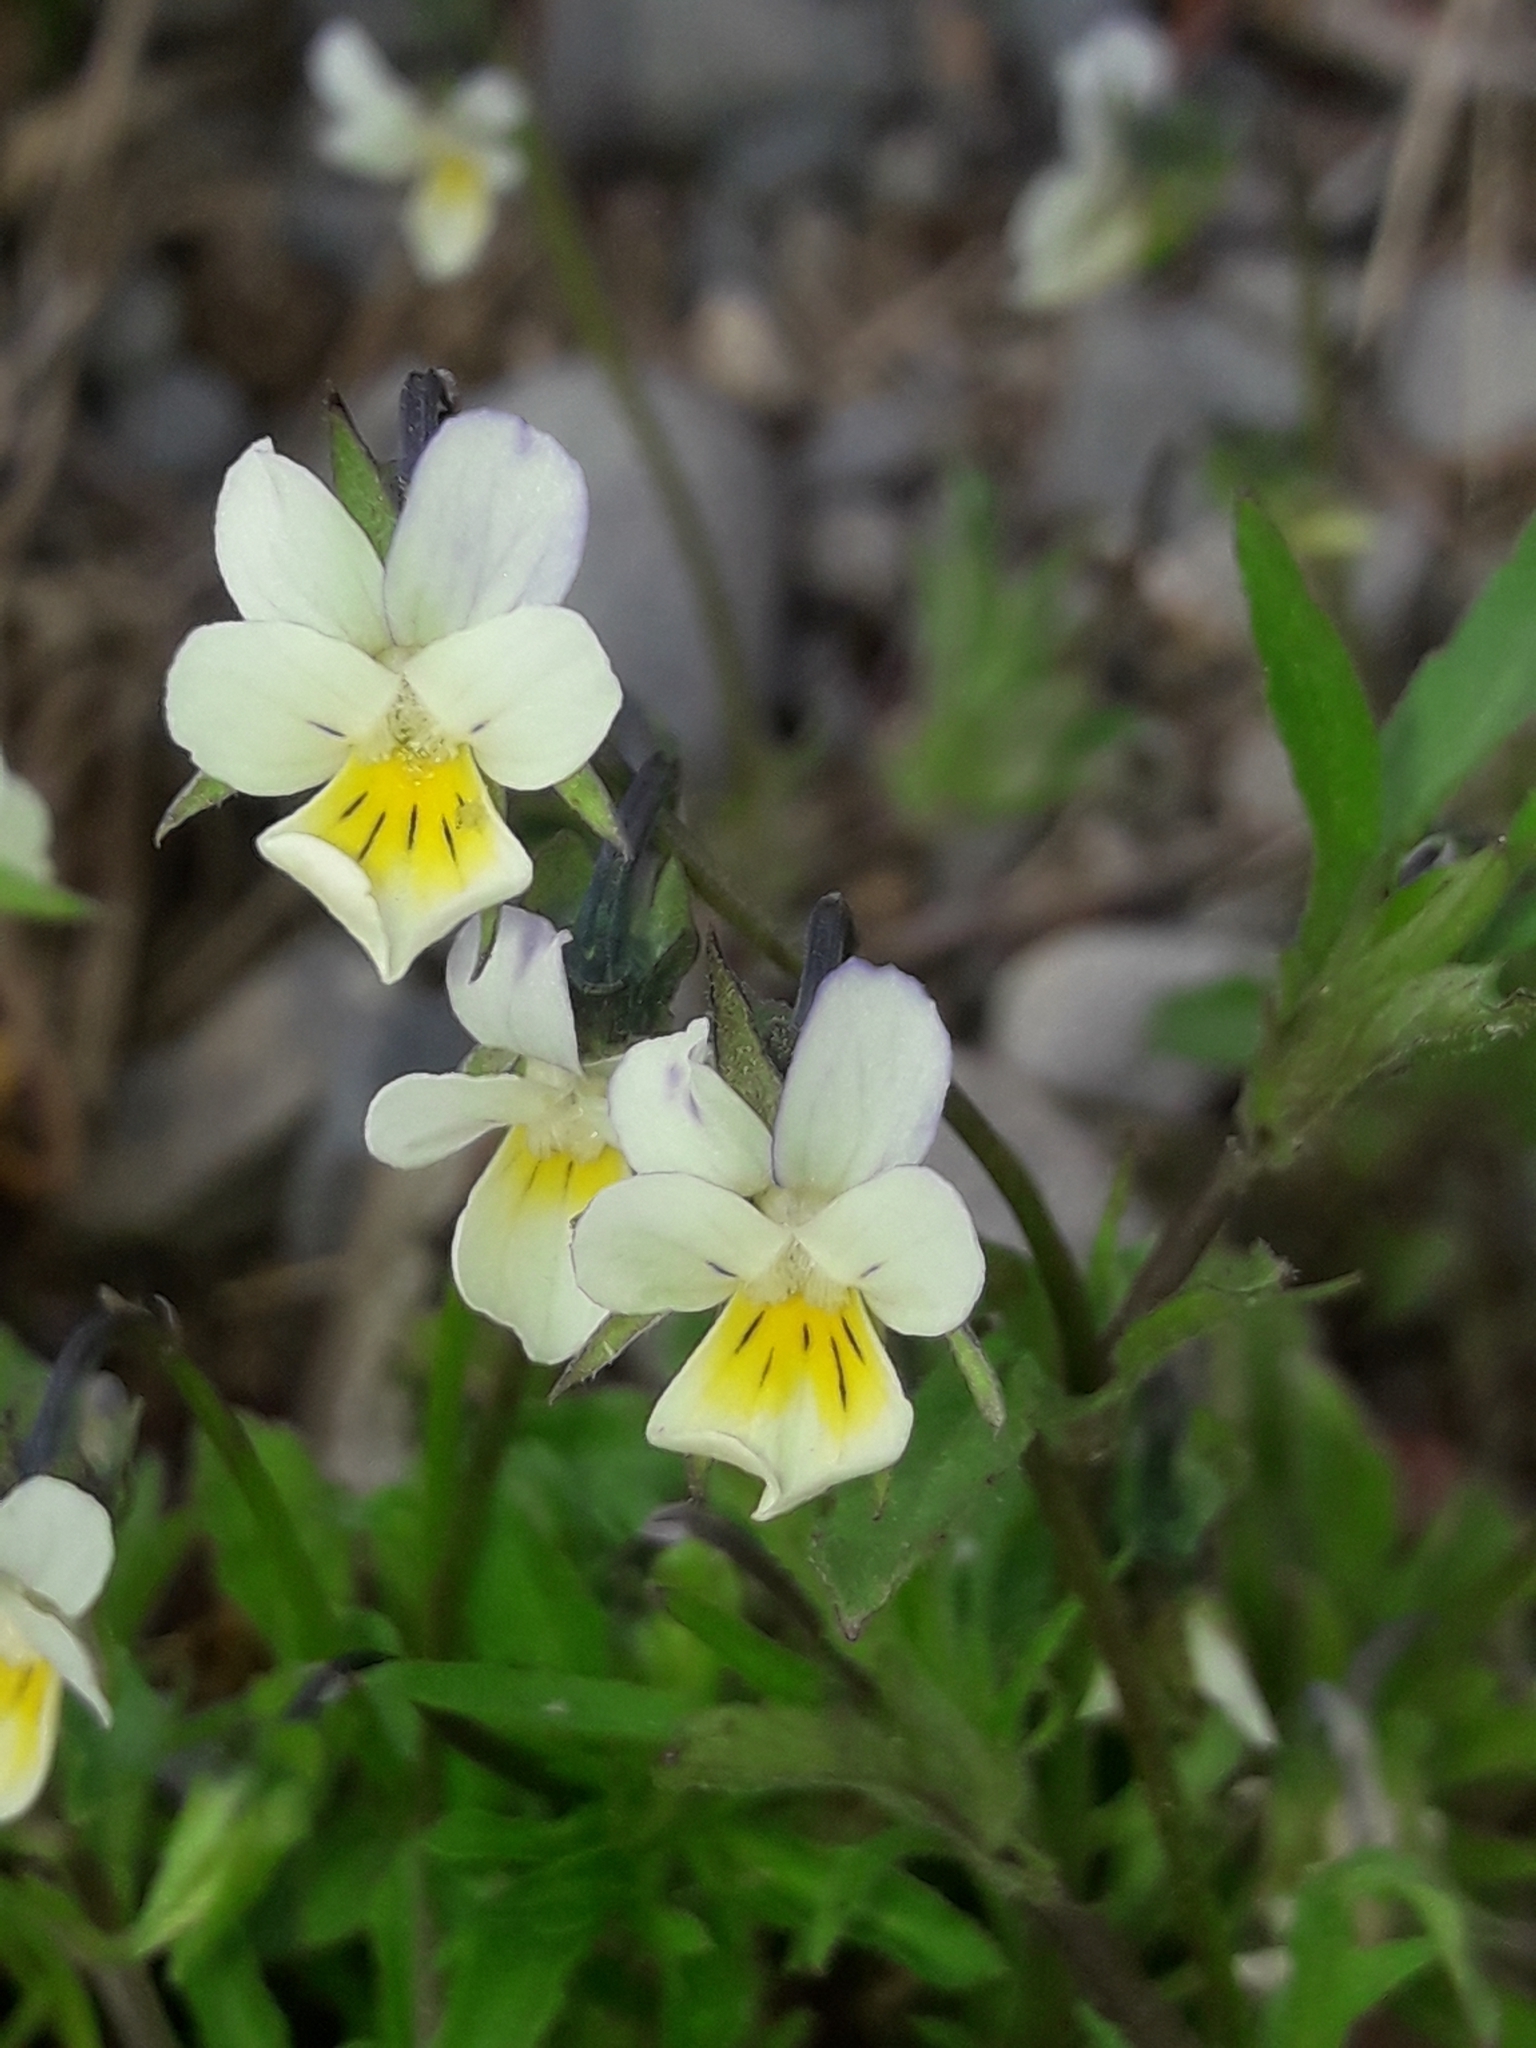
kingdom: Plantae
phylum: Tracheophyta
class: Magnoliopsida
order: Malpighiales
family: Violaceae
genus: Viola
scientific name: Viola arvensis
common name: Field pansy
